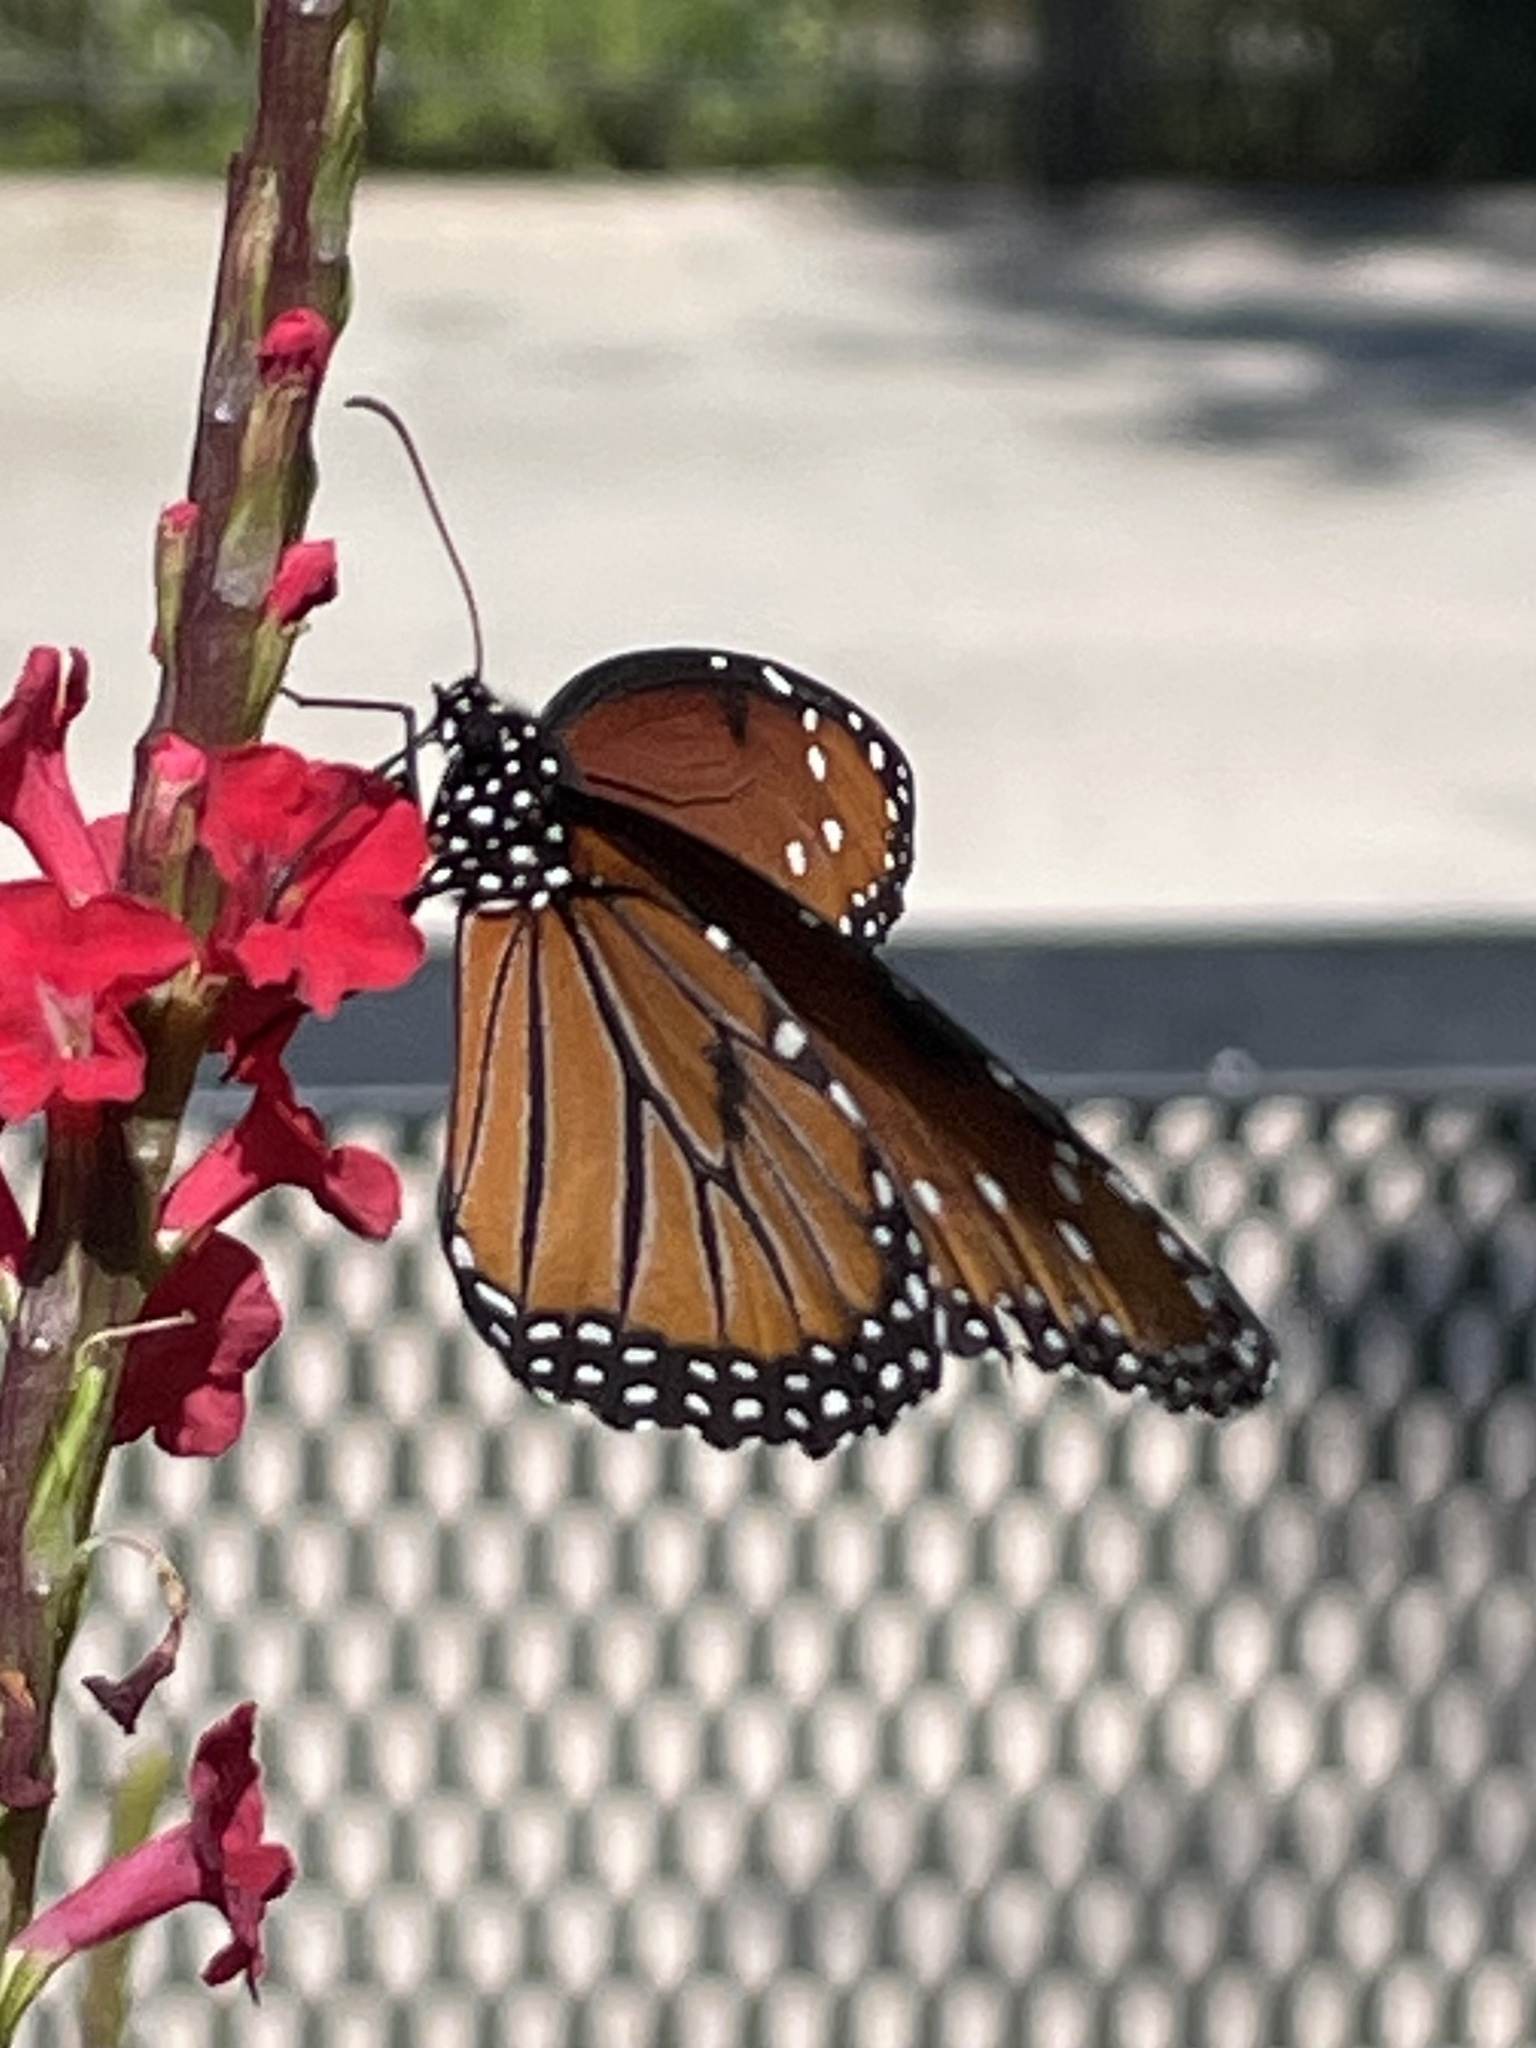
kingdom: Animalia
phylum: Arthropoda
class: Insecta
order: Lepidoptera
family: Nymphalidae
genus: Danaus
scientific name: Danaus gilippus
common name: Queen
